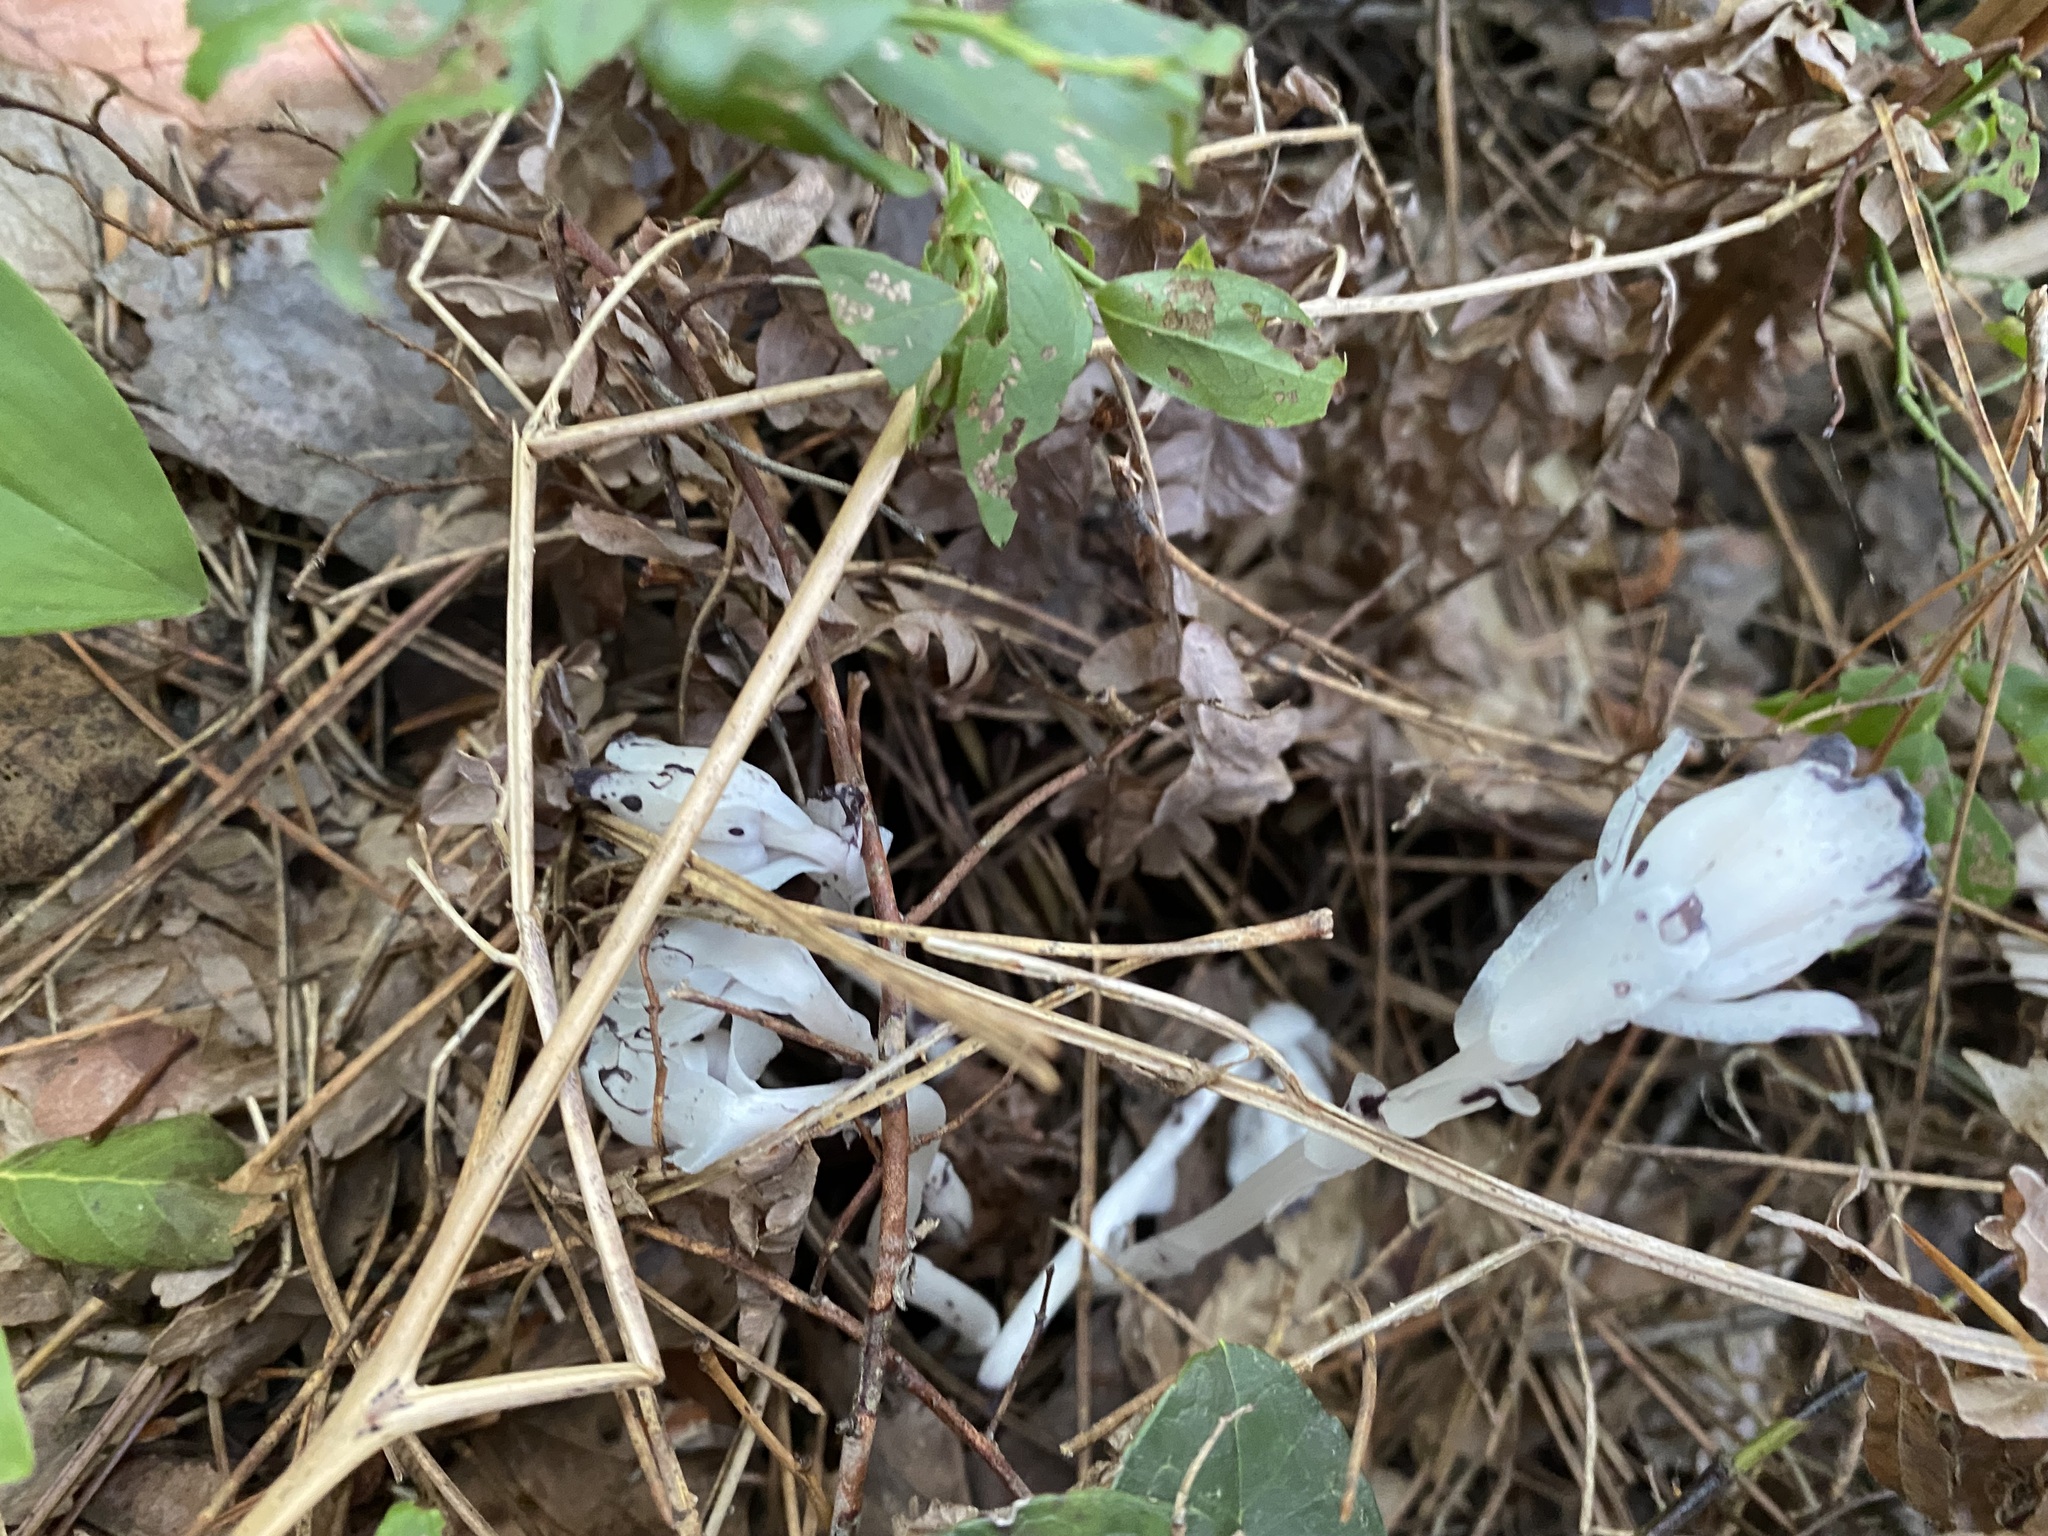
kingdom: Plantae
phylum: Tracheophyta
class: Magnoliopsida
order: Ericales
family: Ericaceae
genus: Monotropa
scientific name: Monotropa uniflora
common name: Convulsion root
